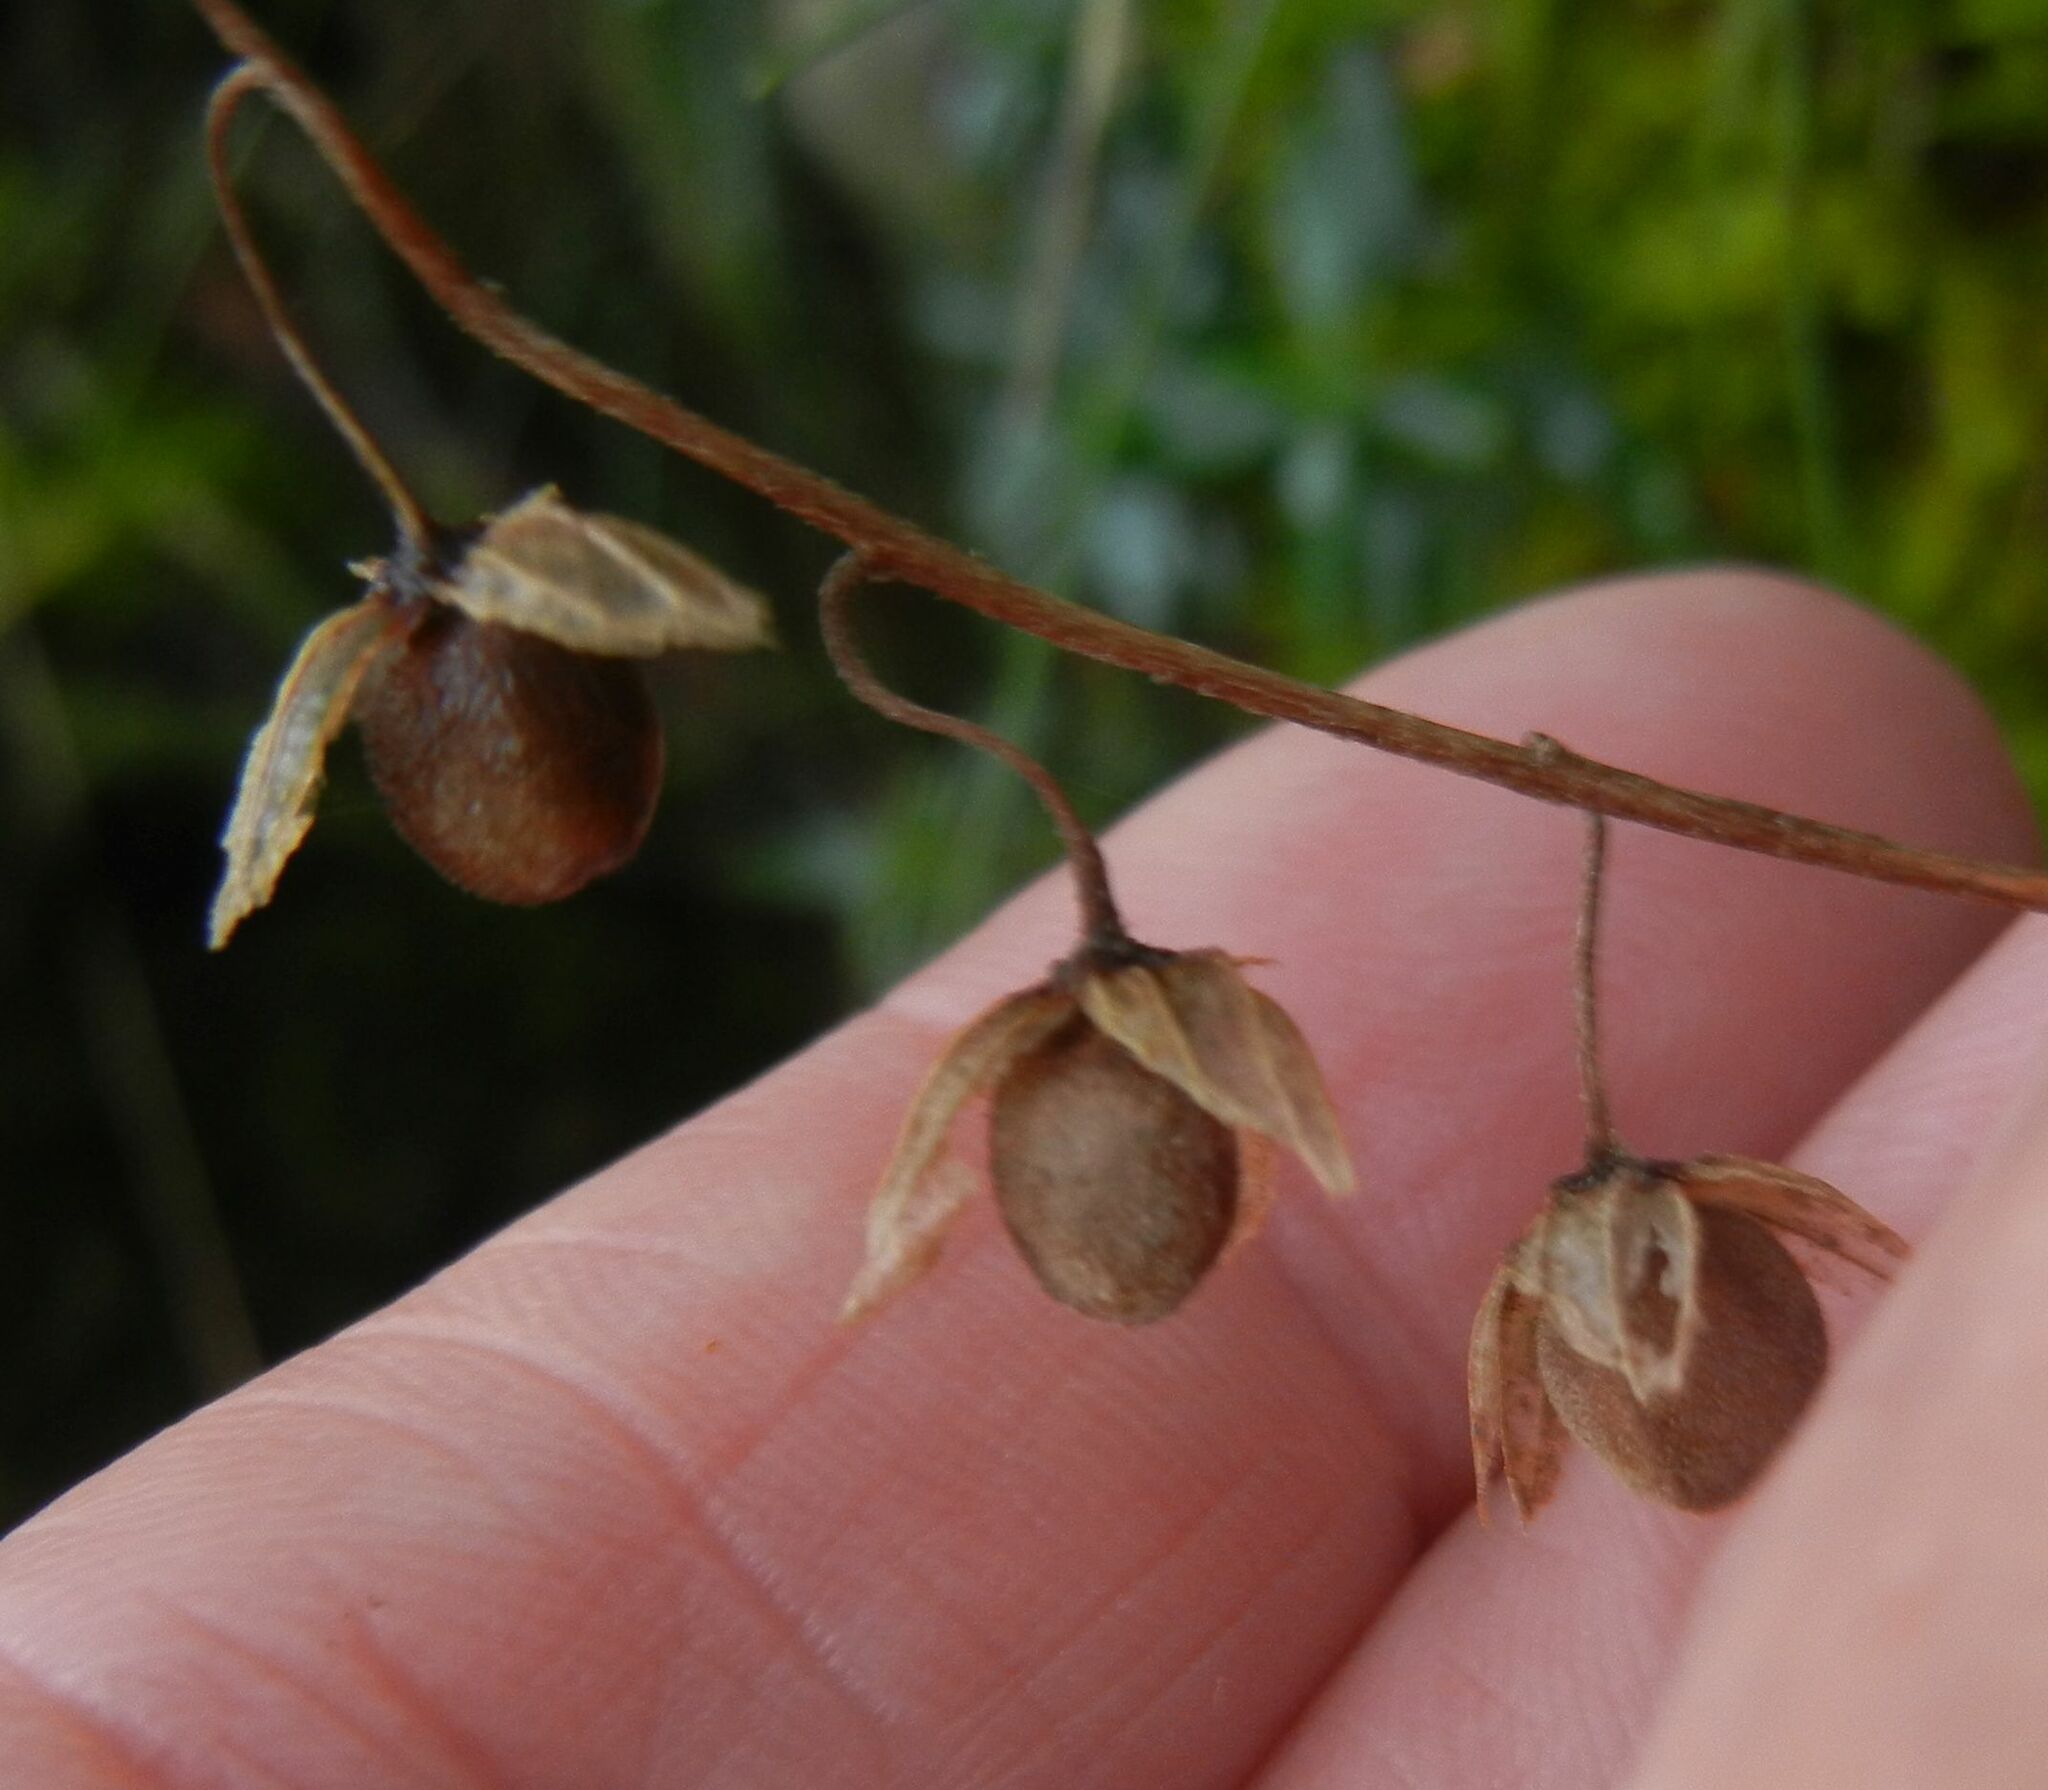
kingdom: Plantae
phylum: Tracheophyta
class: Magnoliopsida
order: Malvales
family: Cistaceae
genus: Helianthemum
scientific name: Helianthemum nummularium
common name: Common rock-rose
